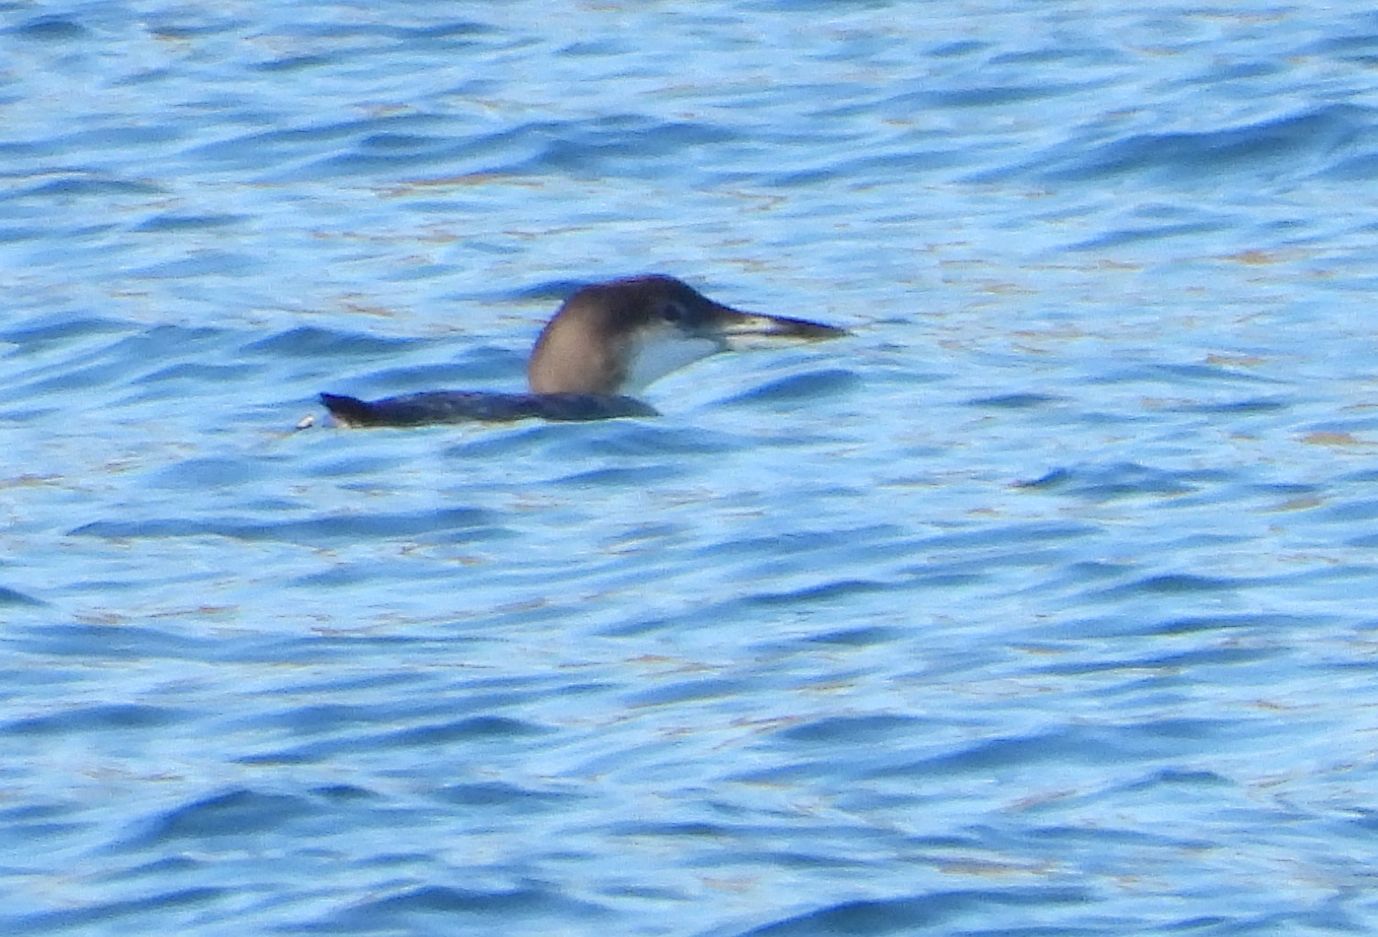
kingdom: Animalia
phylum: Chordata
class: Aves
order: Gaviiformes
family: Gaviidae
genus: Gavia
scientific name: Gavia immer
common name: Common loon
